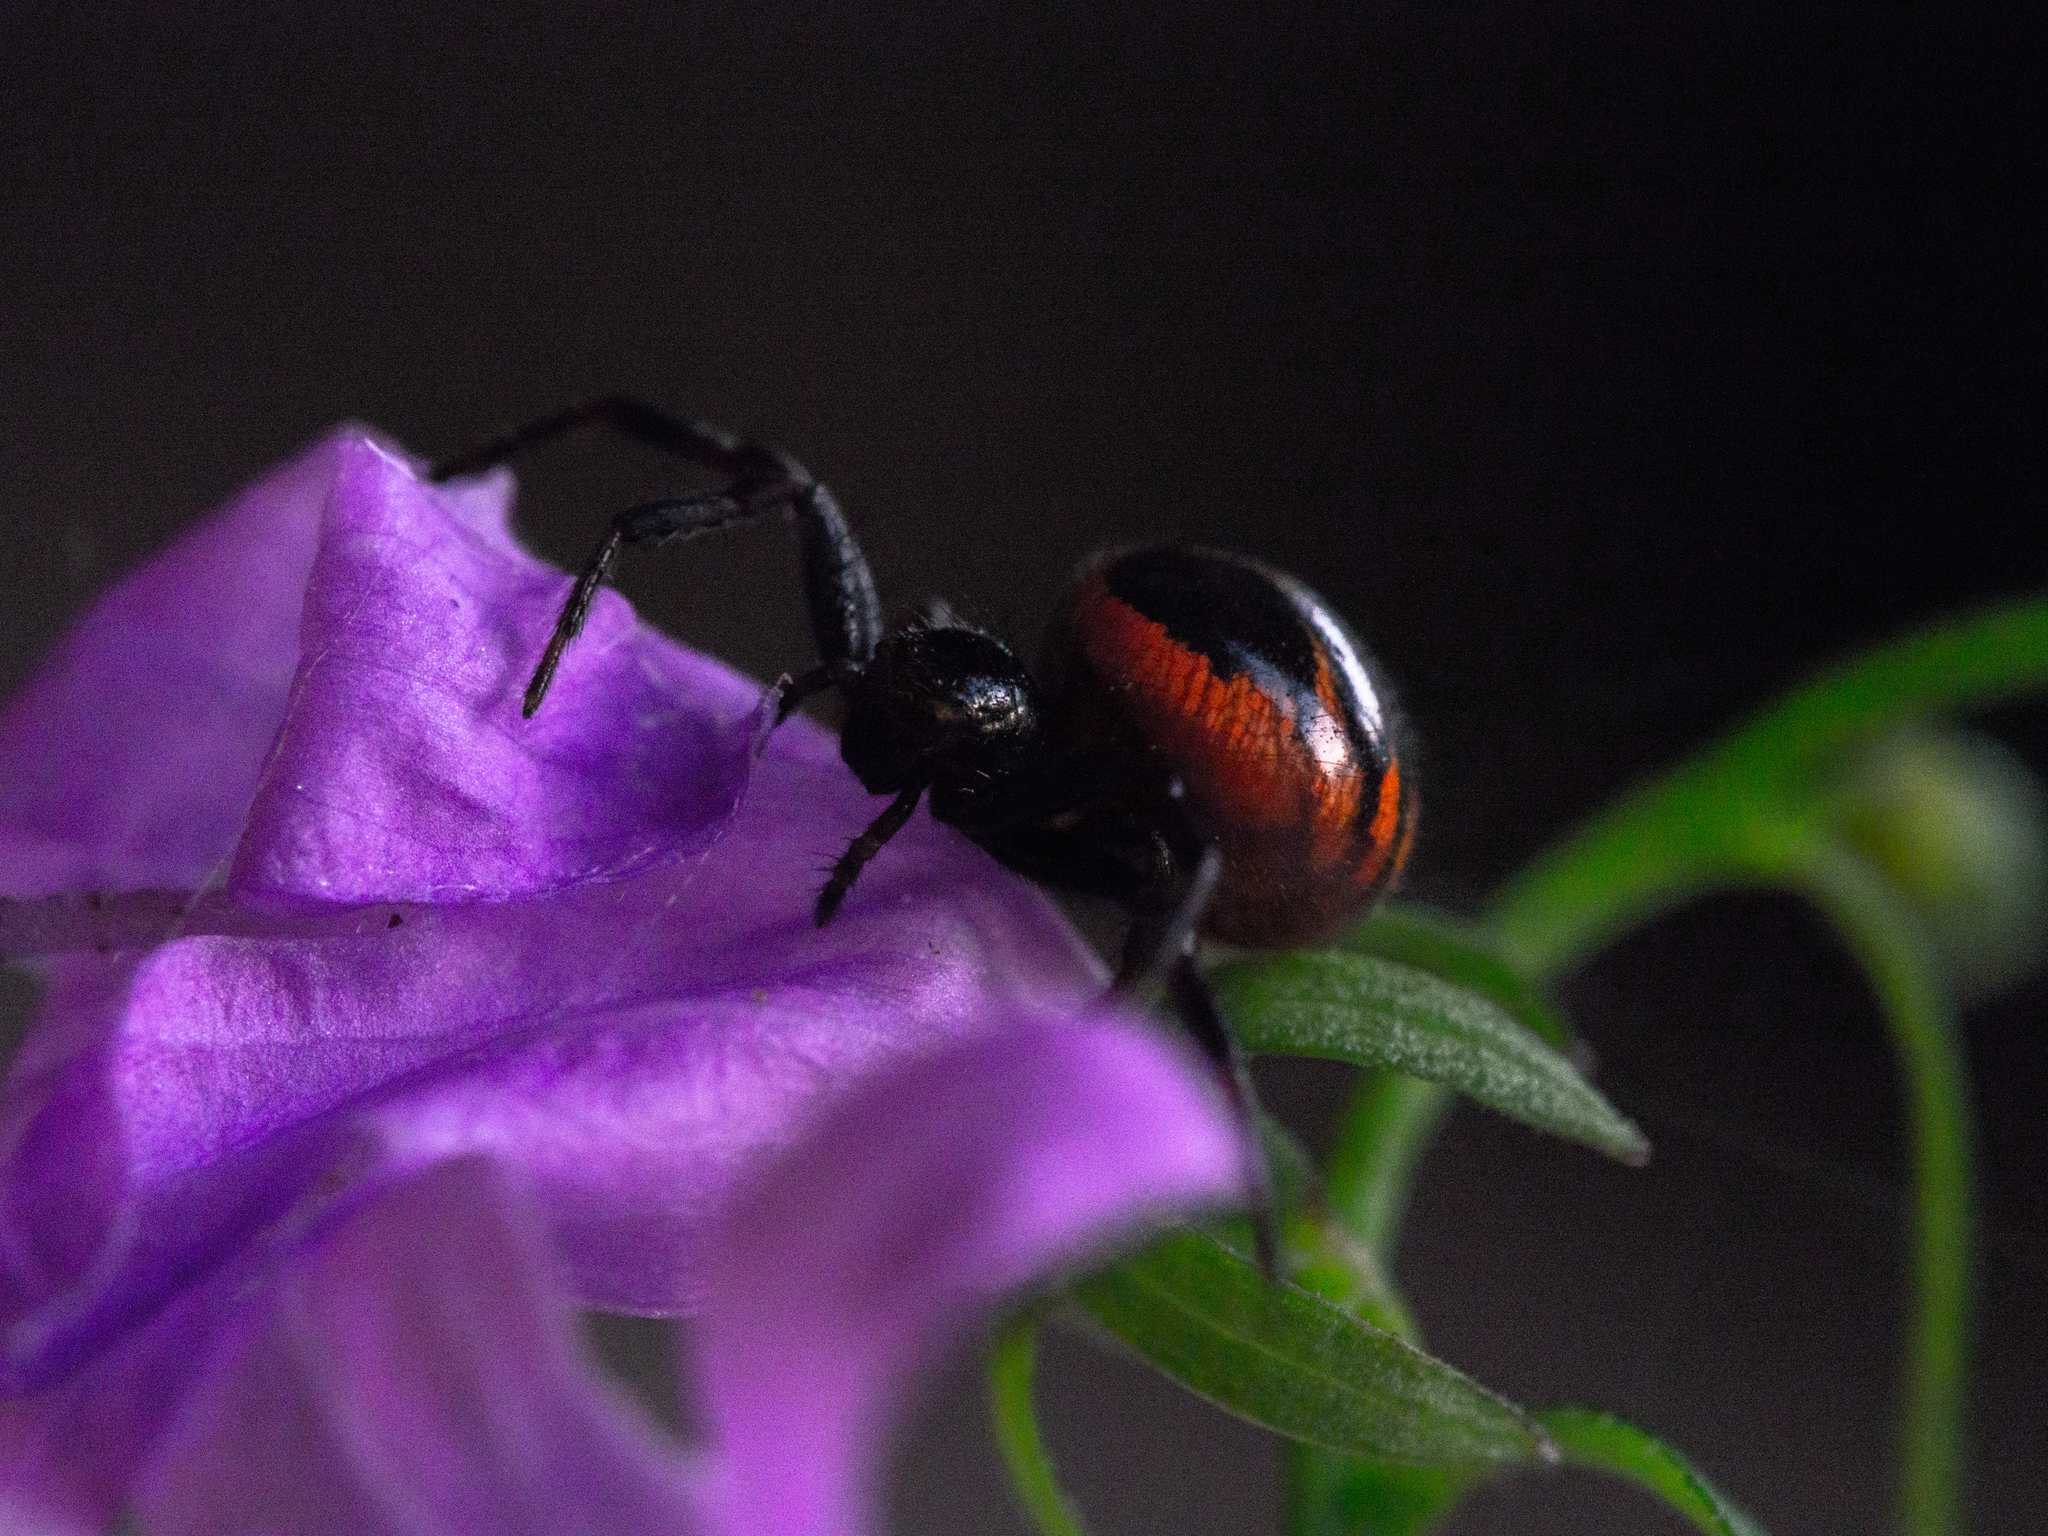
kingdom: Animalia
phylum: Arthropoda
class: Arachnida
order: Araneae
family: Thomisidae
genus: Synema
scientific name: Synema globosum
